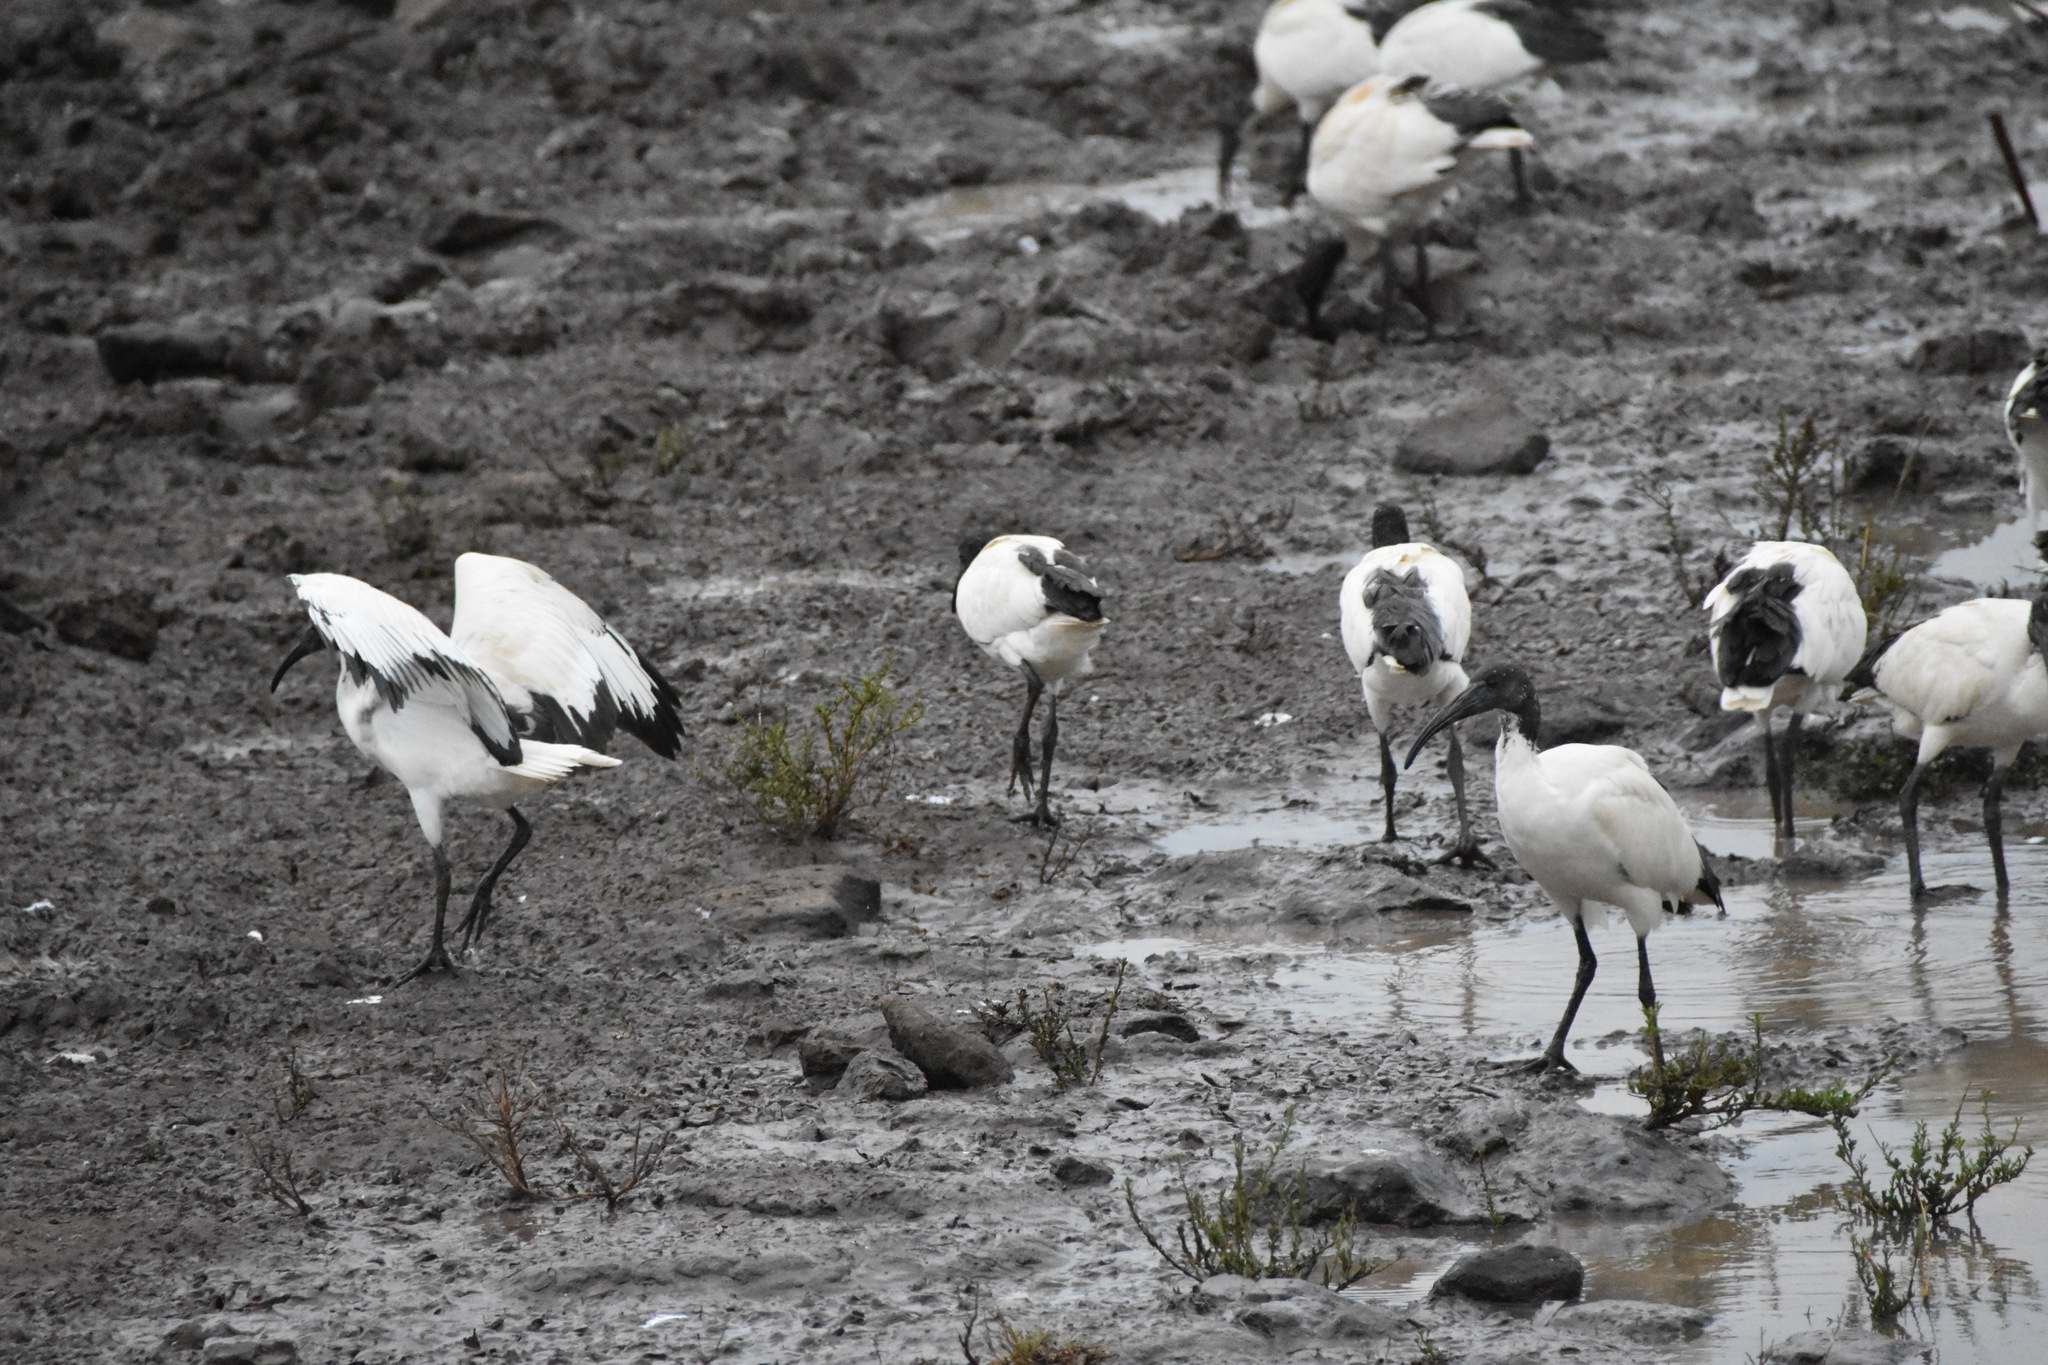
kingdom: Animalia
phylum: Chordata
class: Aves
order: Pelecaniformes
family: Threskiornithidae
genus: Threskiornis
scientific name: Threskiornis aethiopicus
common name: Sacred ibis
